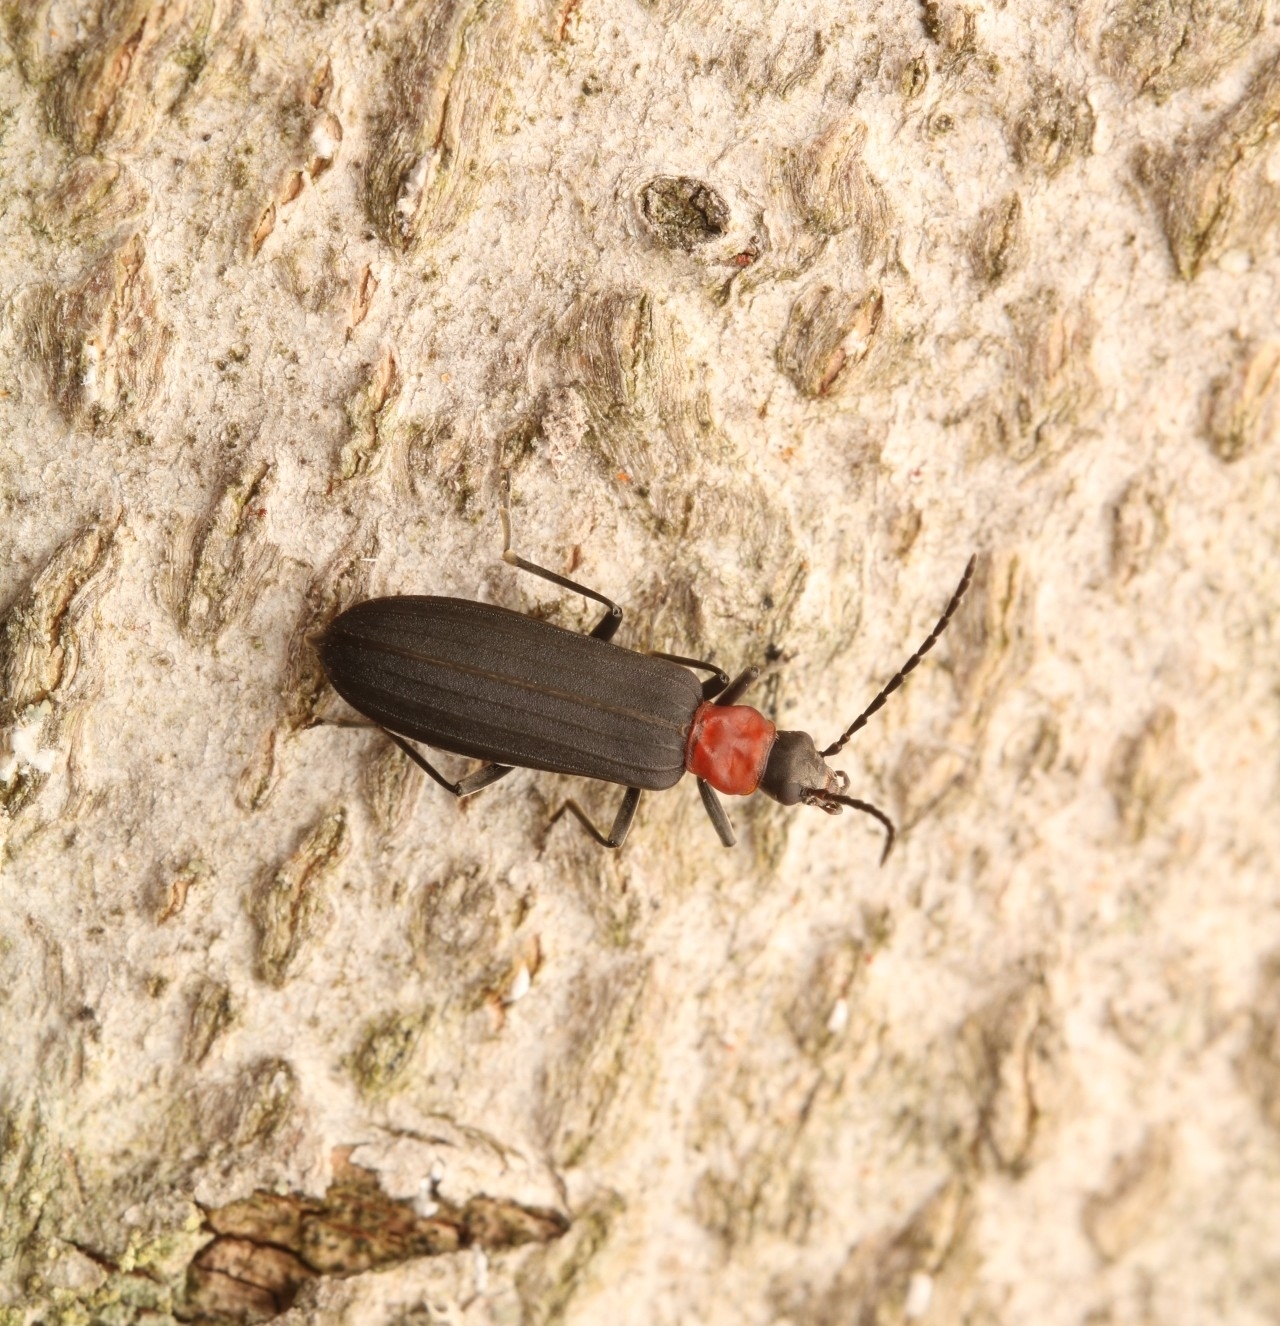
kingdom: Animalia
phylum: Arthropoda
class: Insecta
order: Coleoptera
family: Oedemeridae
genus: Ischnomera
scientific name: Ischnomera
